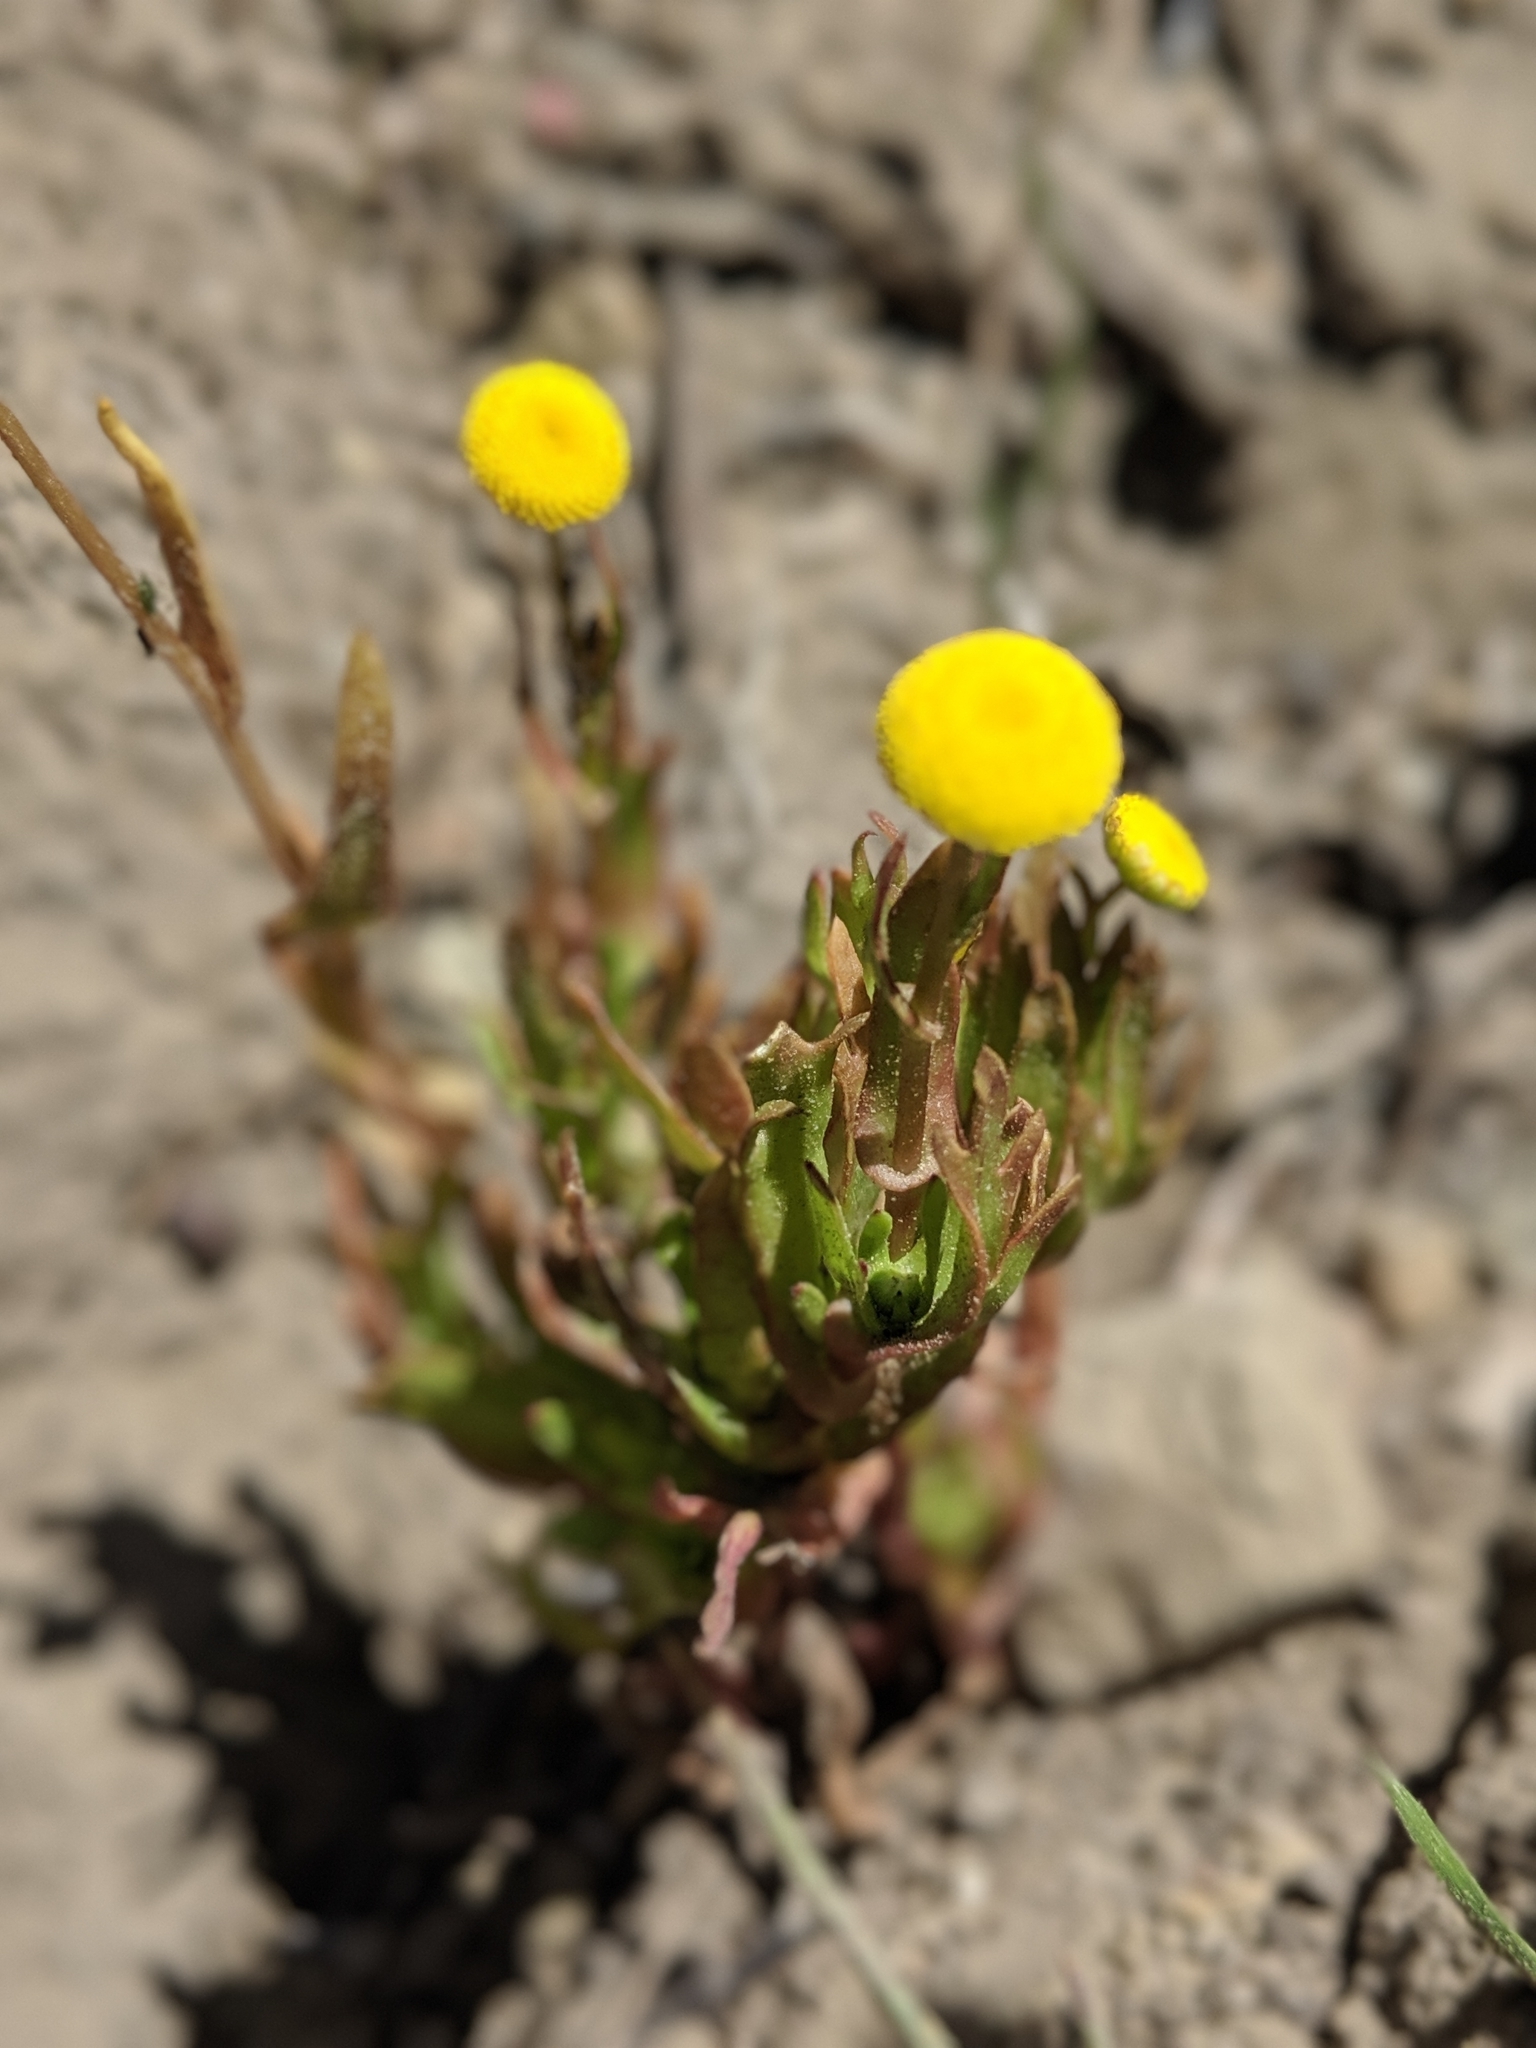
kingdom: Plantae
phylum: Tracheophyta
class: Magnoliopsida
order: Asterales
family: Asteraceae
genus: Cotula
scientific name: Cotula coronopifolia
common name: Buttonweed
